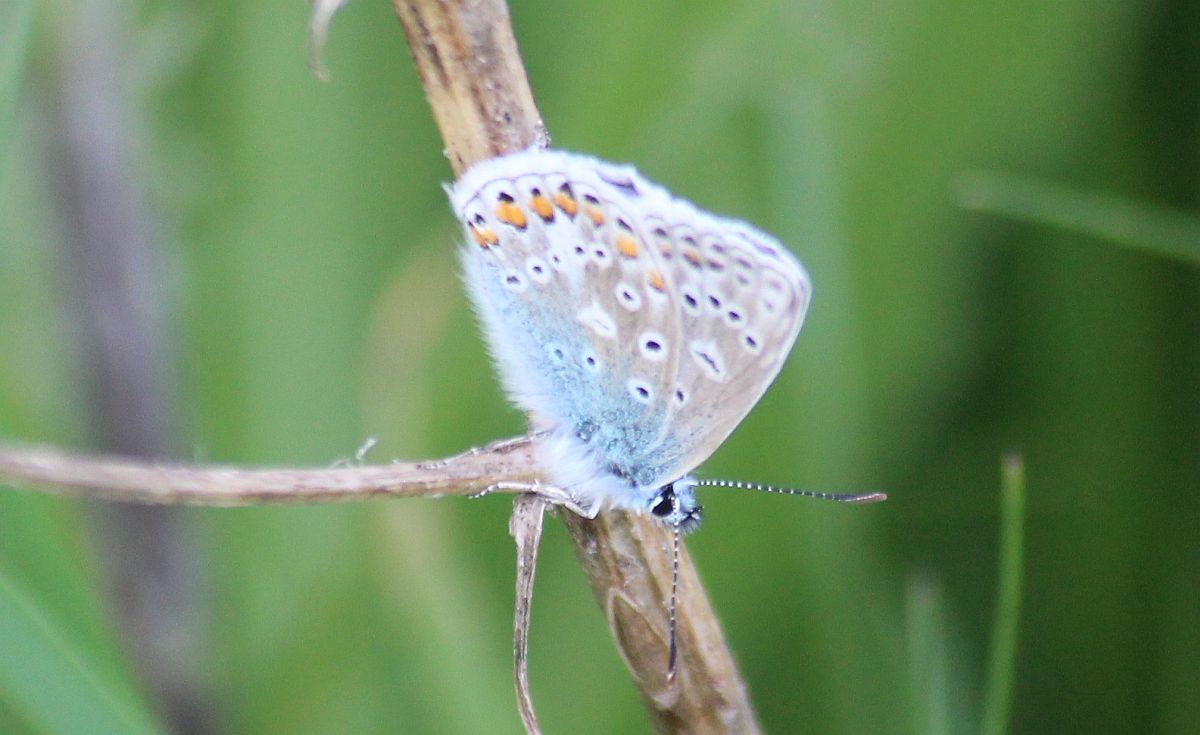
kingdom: Animalia
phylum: Arthropoda
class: Insecta
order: Lepidoptera
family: Lycaenidae
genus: Polyommatus
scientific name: Polyommatus icarus
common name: Common blue
